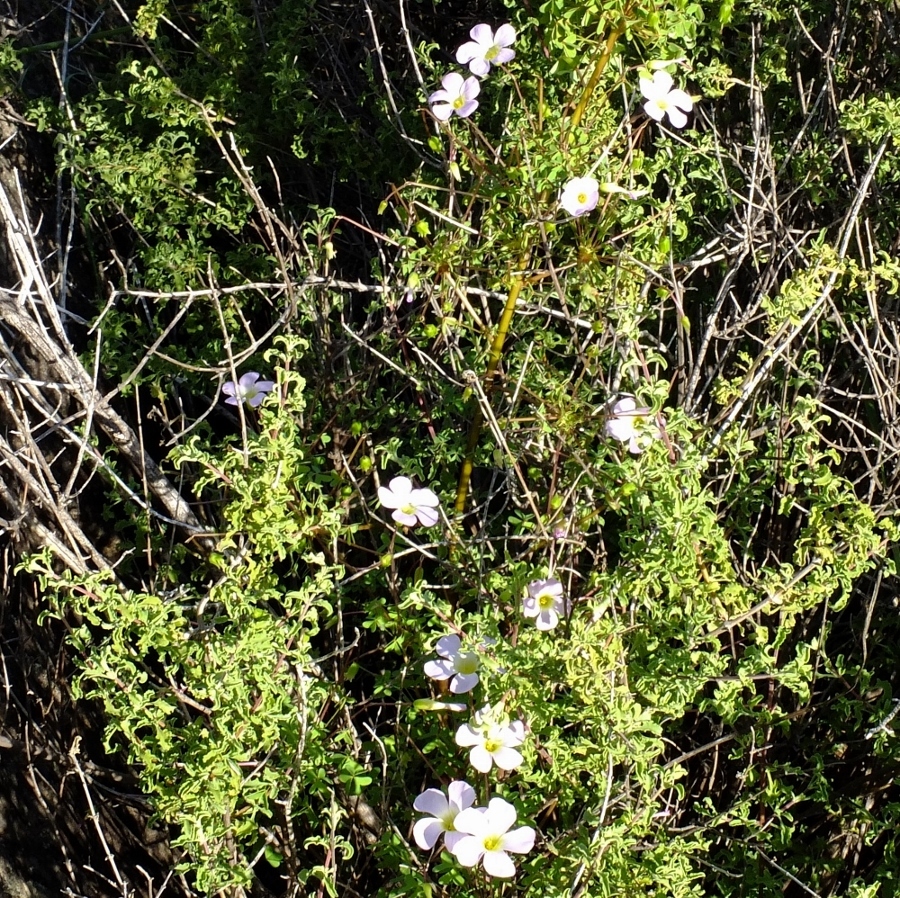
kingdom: Plantae
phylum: Tracheophyta
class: Magnoliopsida
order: Oxalidales
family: Oxalidaceae
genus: Oxalis
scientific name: Oxalis comosa
